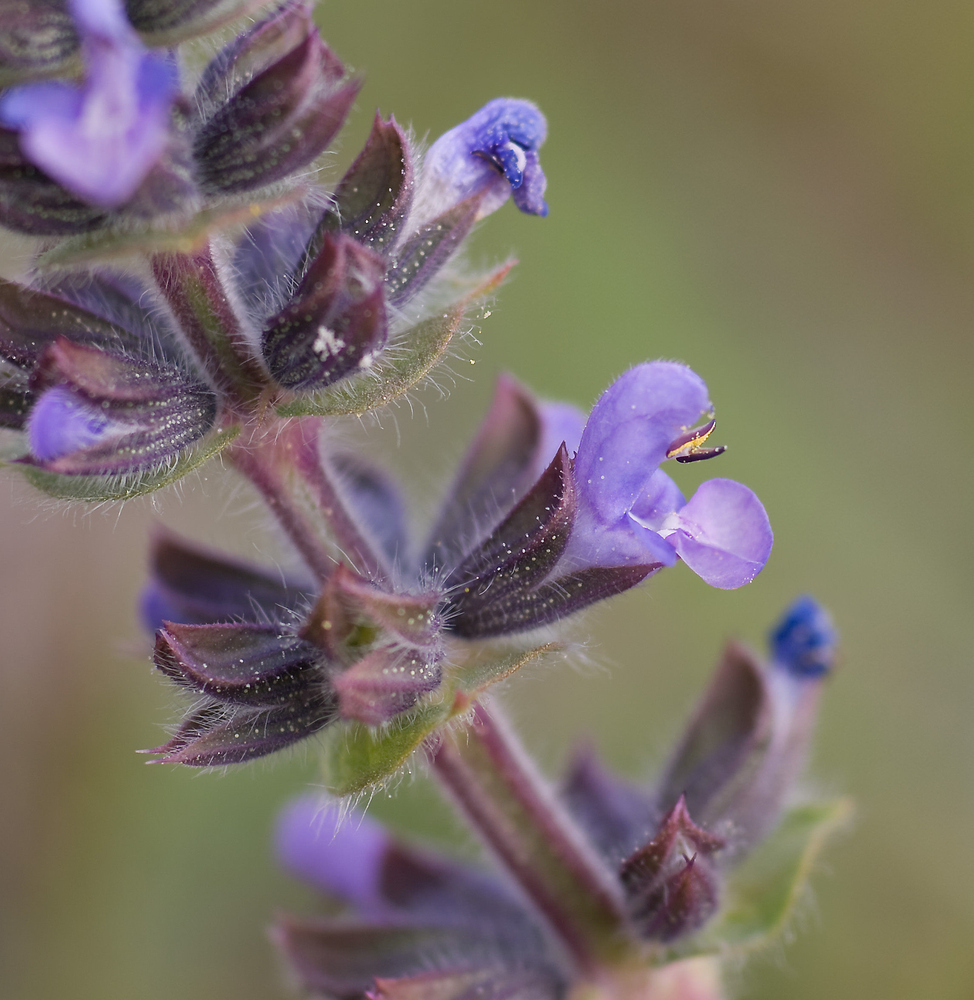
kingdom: Plantae
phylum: Tracheophyta
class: Magnoliopsida
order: Lamiales
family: Lamiaceae
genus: Salvia
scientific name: Salvia verbenaca
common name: Wild clary
